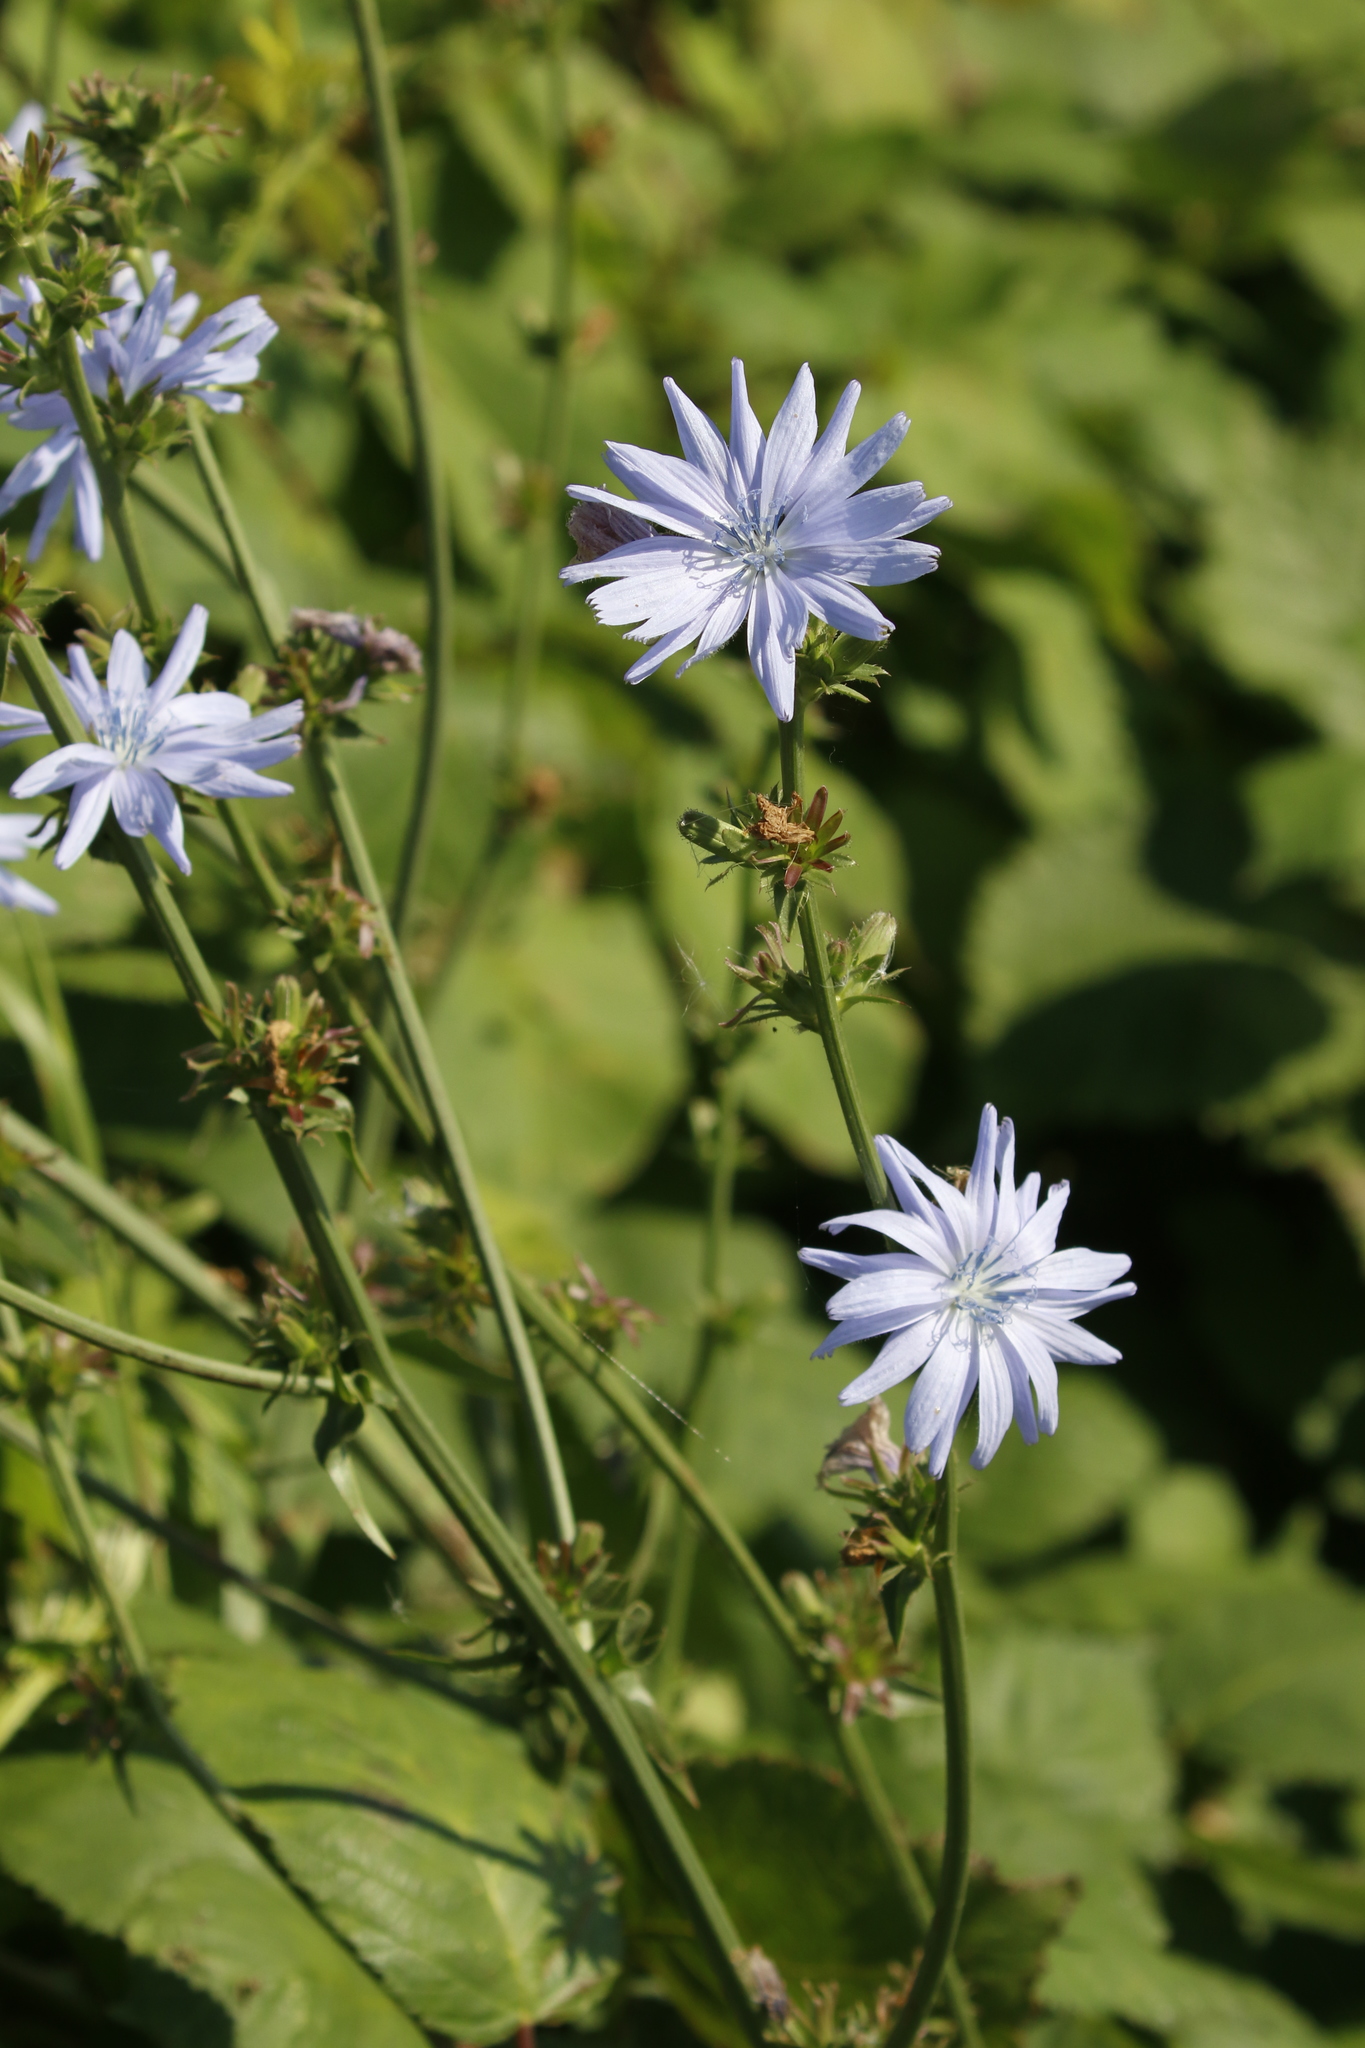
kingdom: Plantae
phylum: Tracheophyta
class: Magnoliopsida
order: Asterales
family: Asteraceae
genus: Cichorium
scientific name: Cichorium intybus
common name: Chicory
